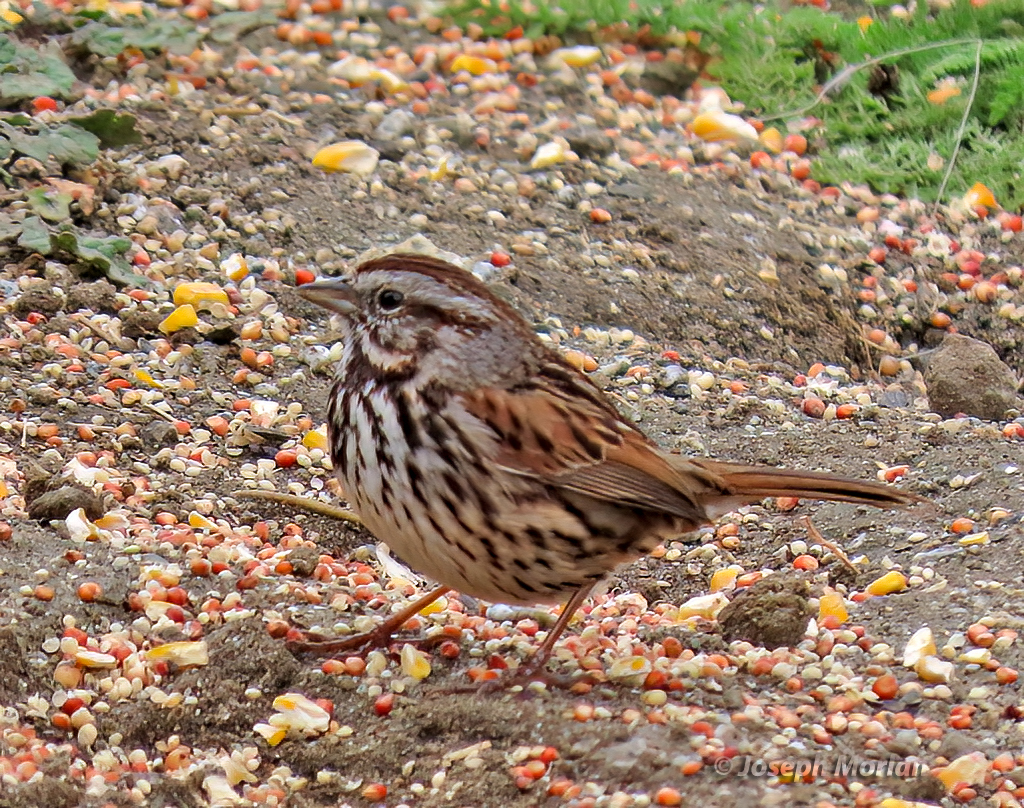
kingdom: Animalia
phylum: Chordata
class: Aves
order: Passeriformes
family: Passerellidae
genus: Melospiza
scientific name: Melospiza melodia
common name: Song sparrow
